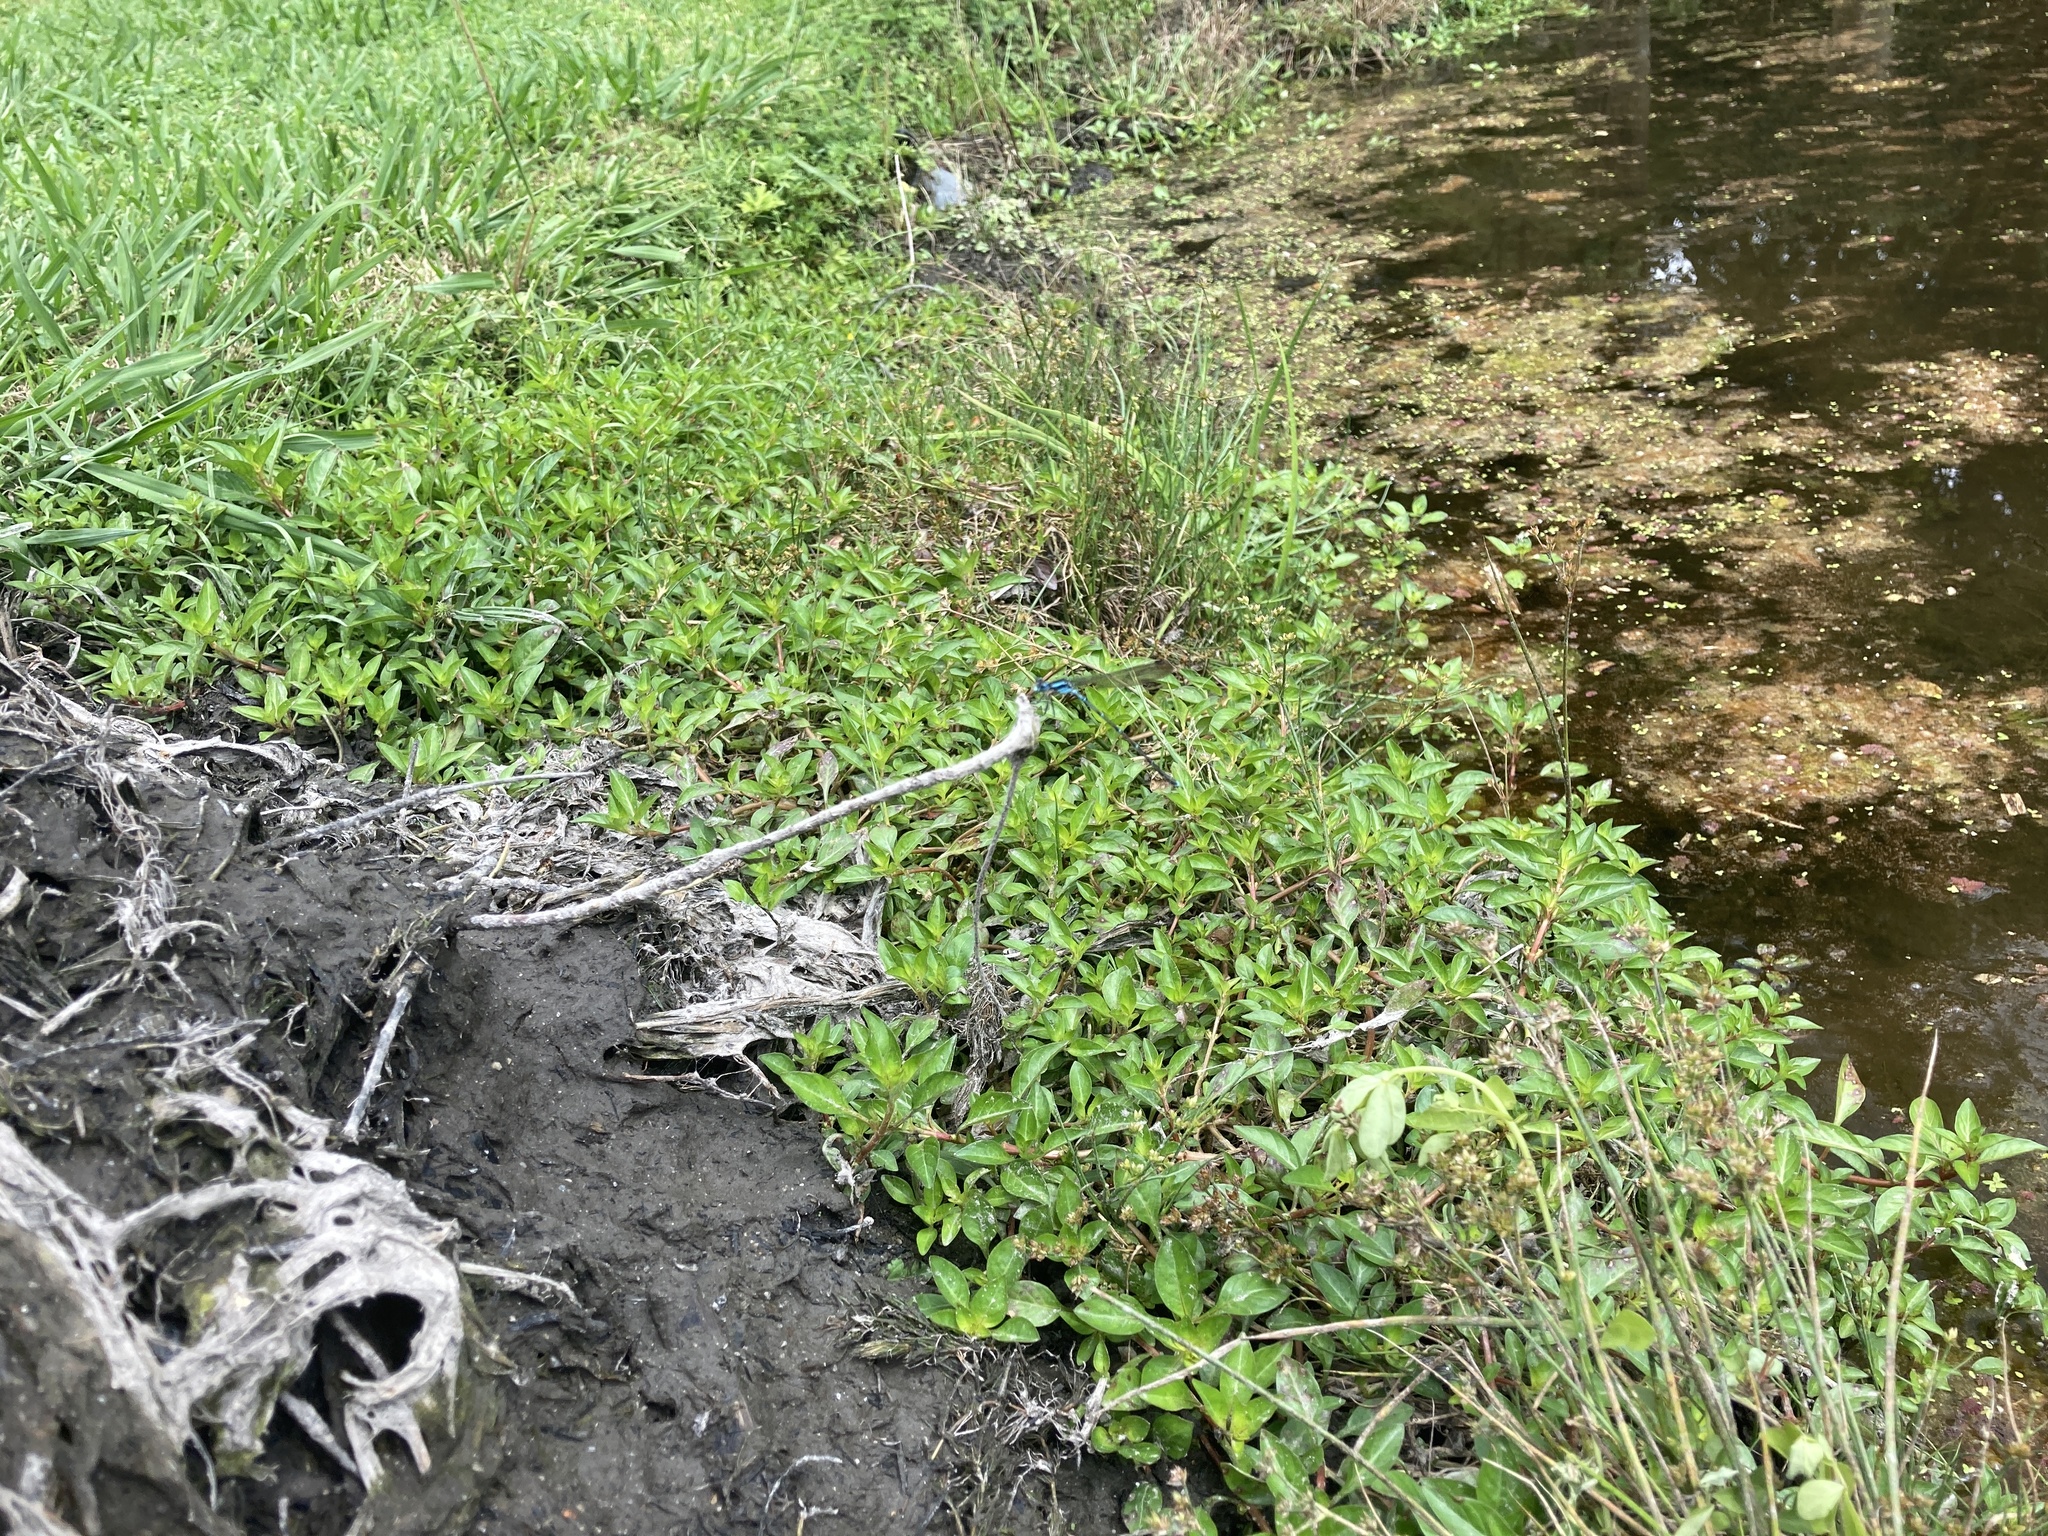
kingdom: Animalia
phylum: Arthropoda
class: Insecta
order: Odonata
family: Lestidae
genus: Austrolestes
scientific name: Austrolestes colensonis
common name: Blue damselfly
